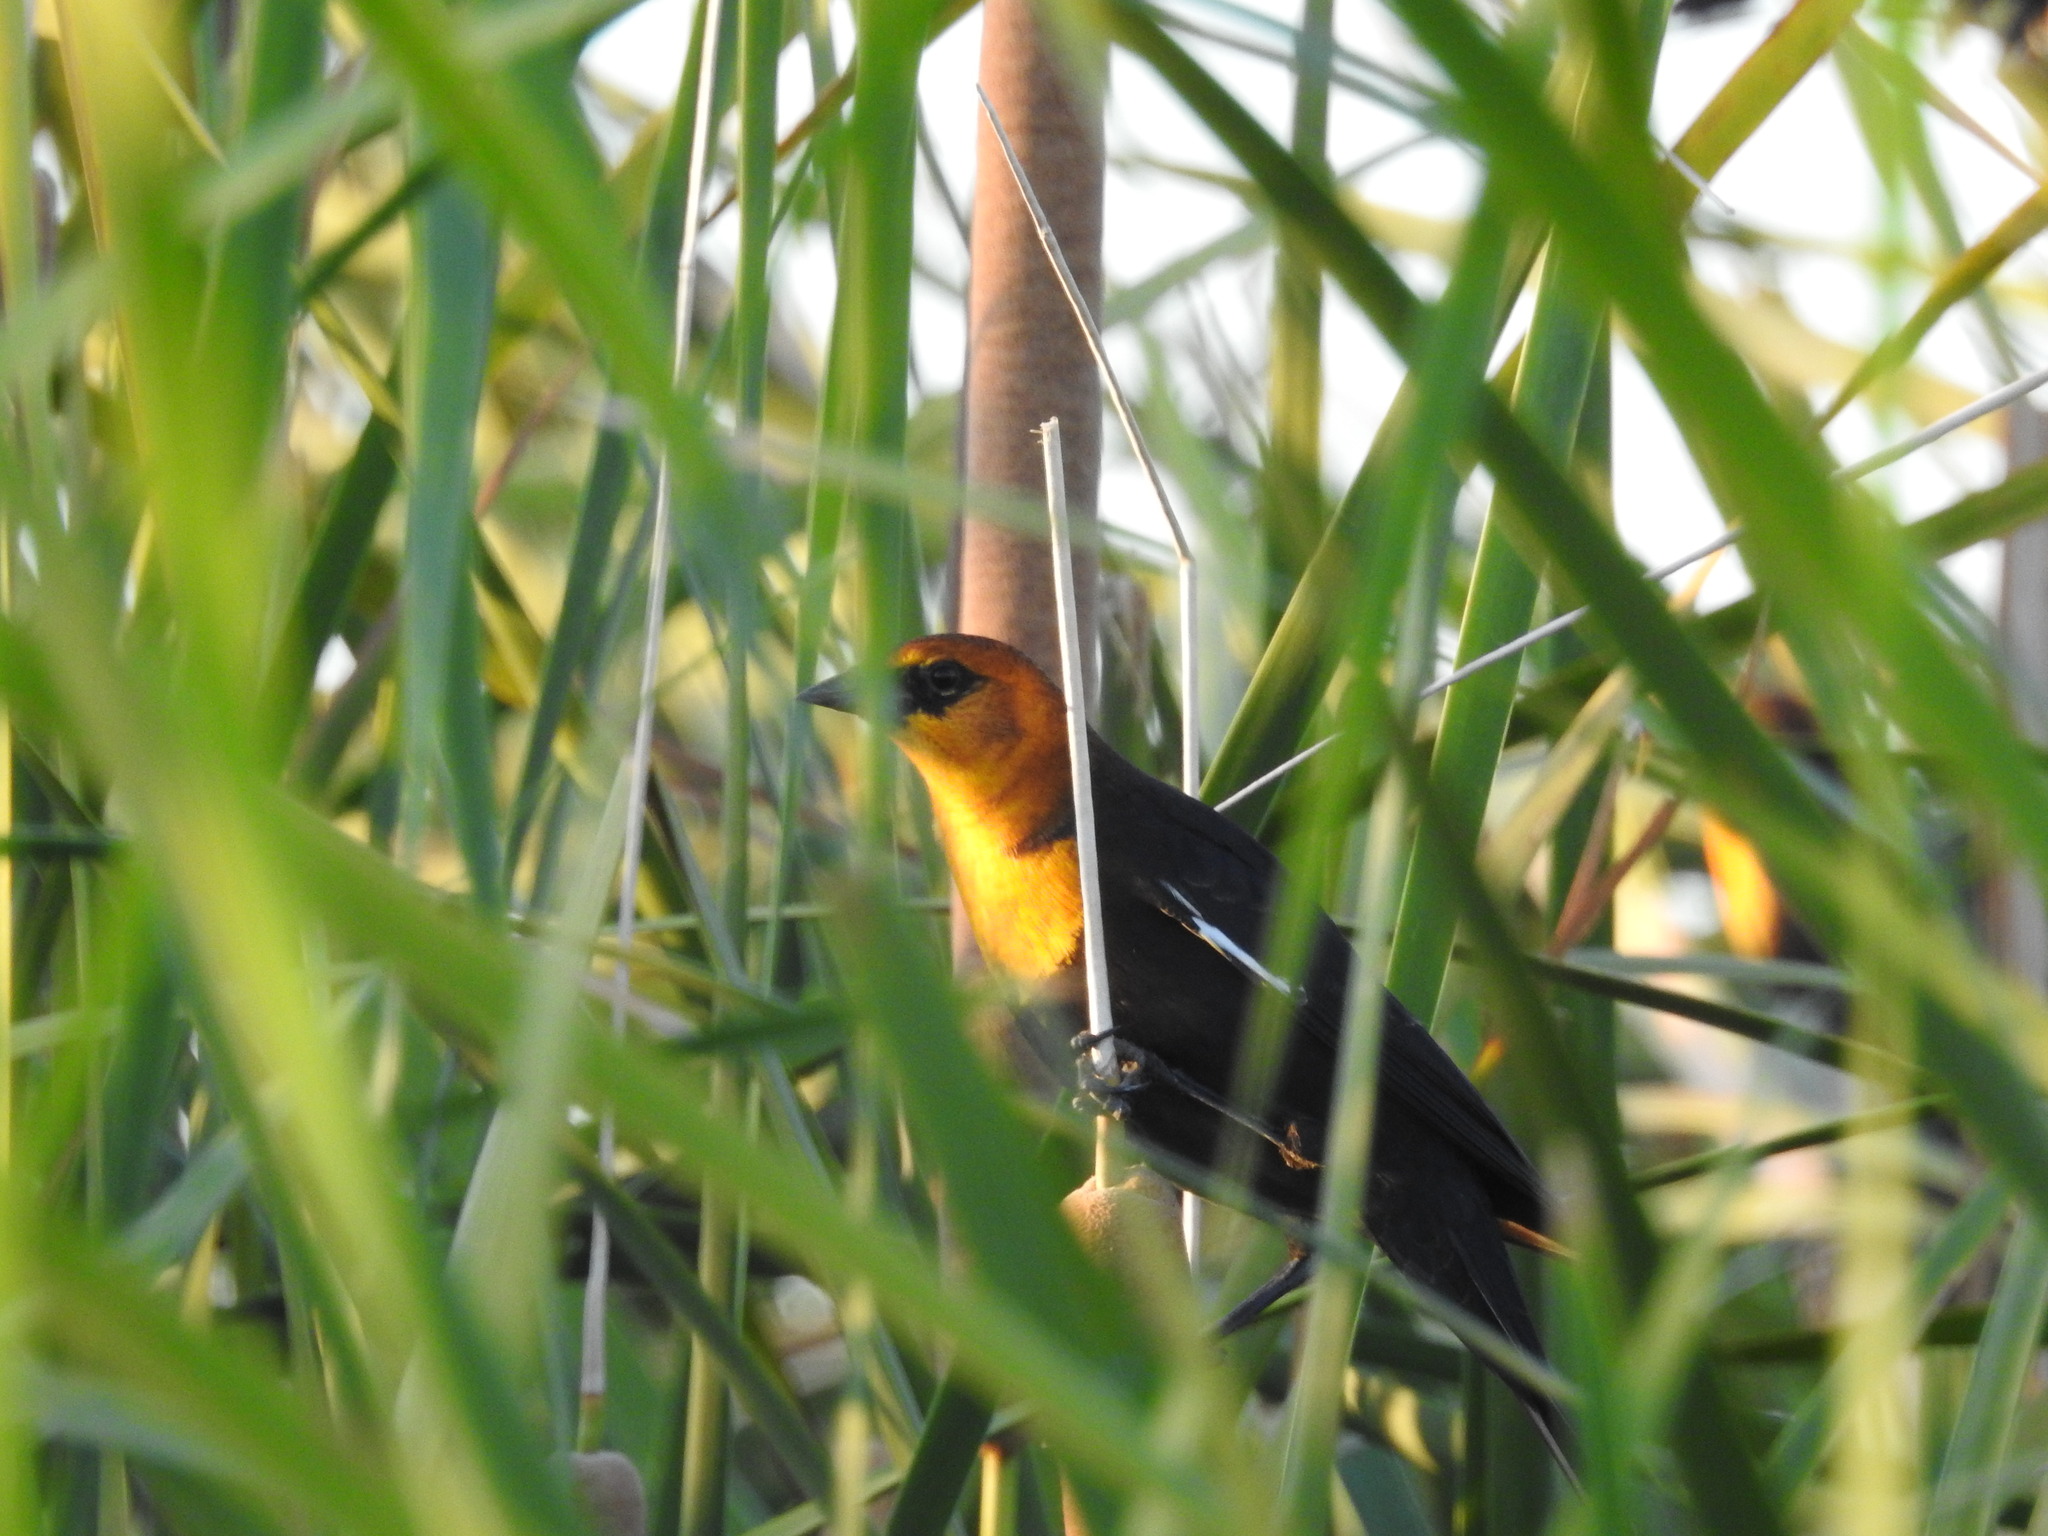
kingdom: Animalia
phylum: Chordata
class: Aves
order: Passeriformes
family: Icteridae
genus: Xanthocephalus
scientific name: Xanthocephalus xanthocephalus
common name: Yellow-headed blackbird
